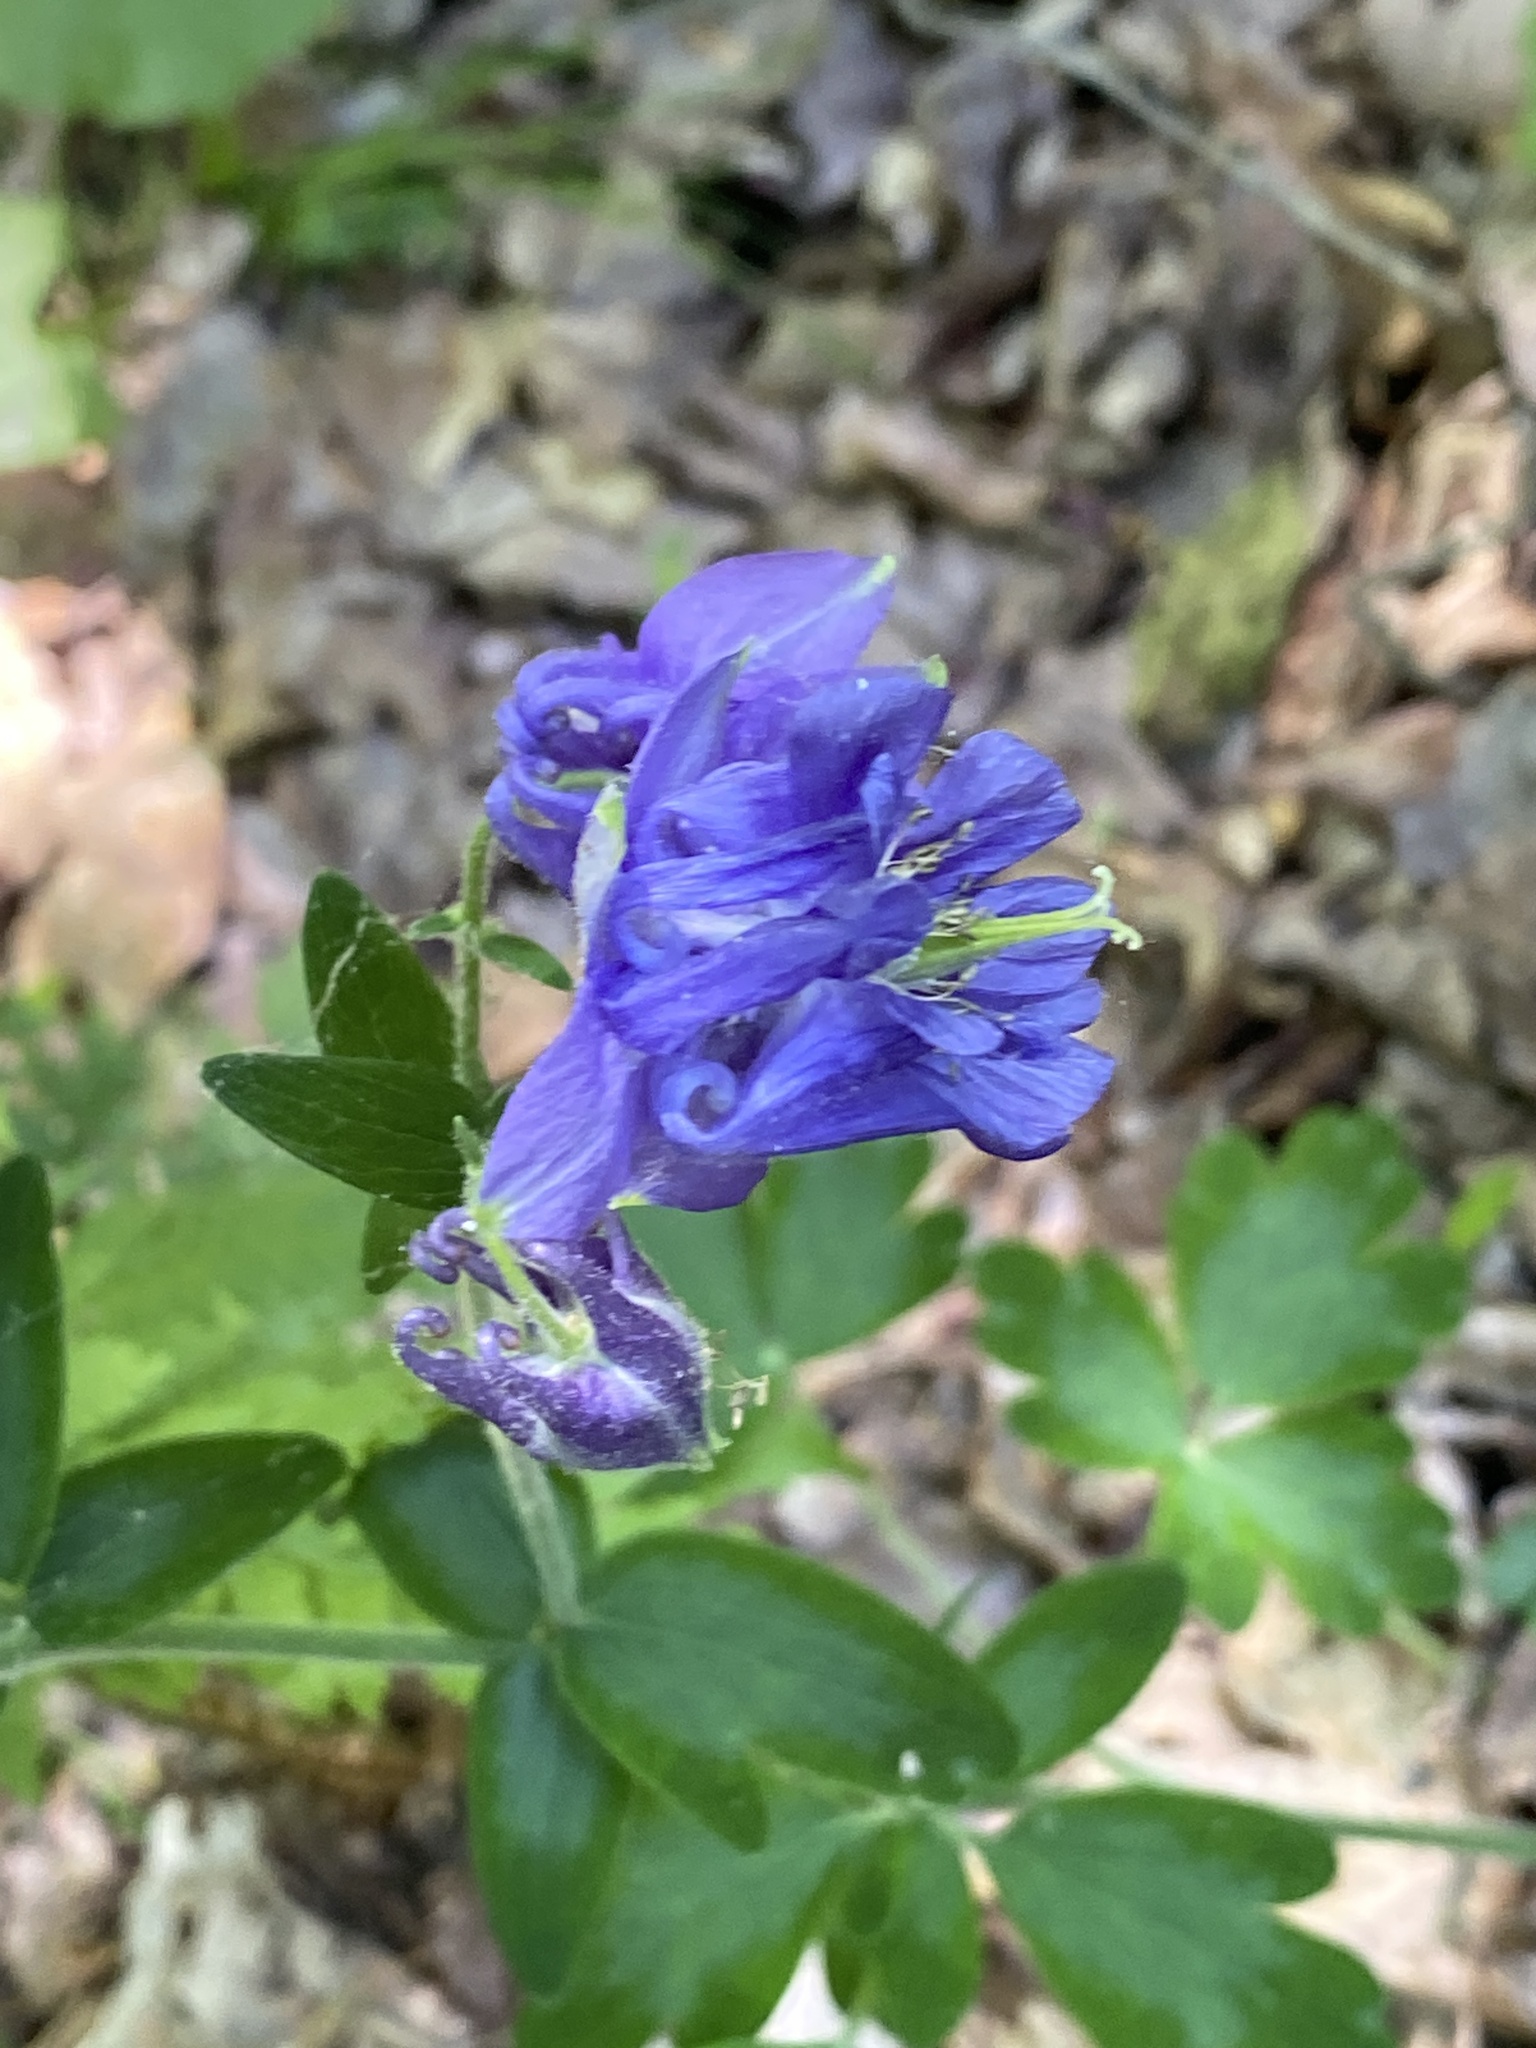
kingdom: Plantae
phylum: Tracheophyta
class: Magnoliopsida
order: Ranunculales
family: Ranunculaceae
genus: Aquilegia
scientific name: Aquilegia vulgaris
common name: Columbine
